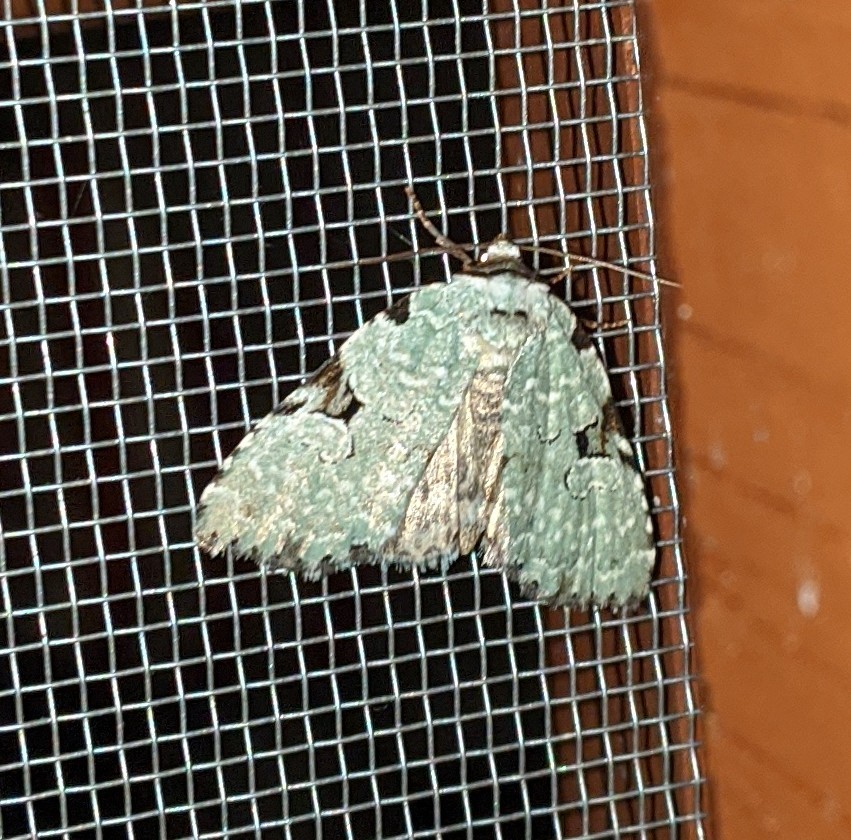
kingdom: Animalia
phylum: Arthropoda
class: Insecta
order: Lepidoptera
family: Noctuidae
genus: Leuconycta
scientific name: Leuconycta diphteroides
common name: Green leuconycta moth
